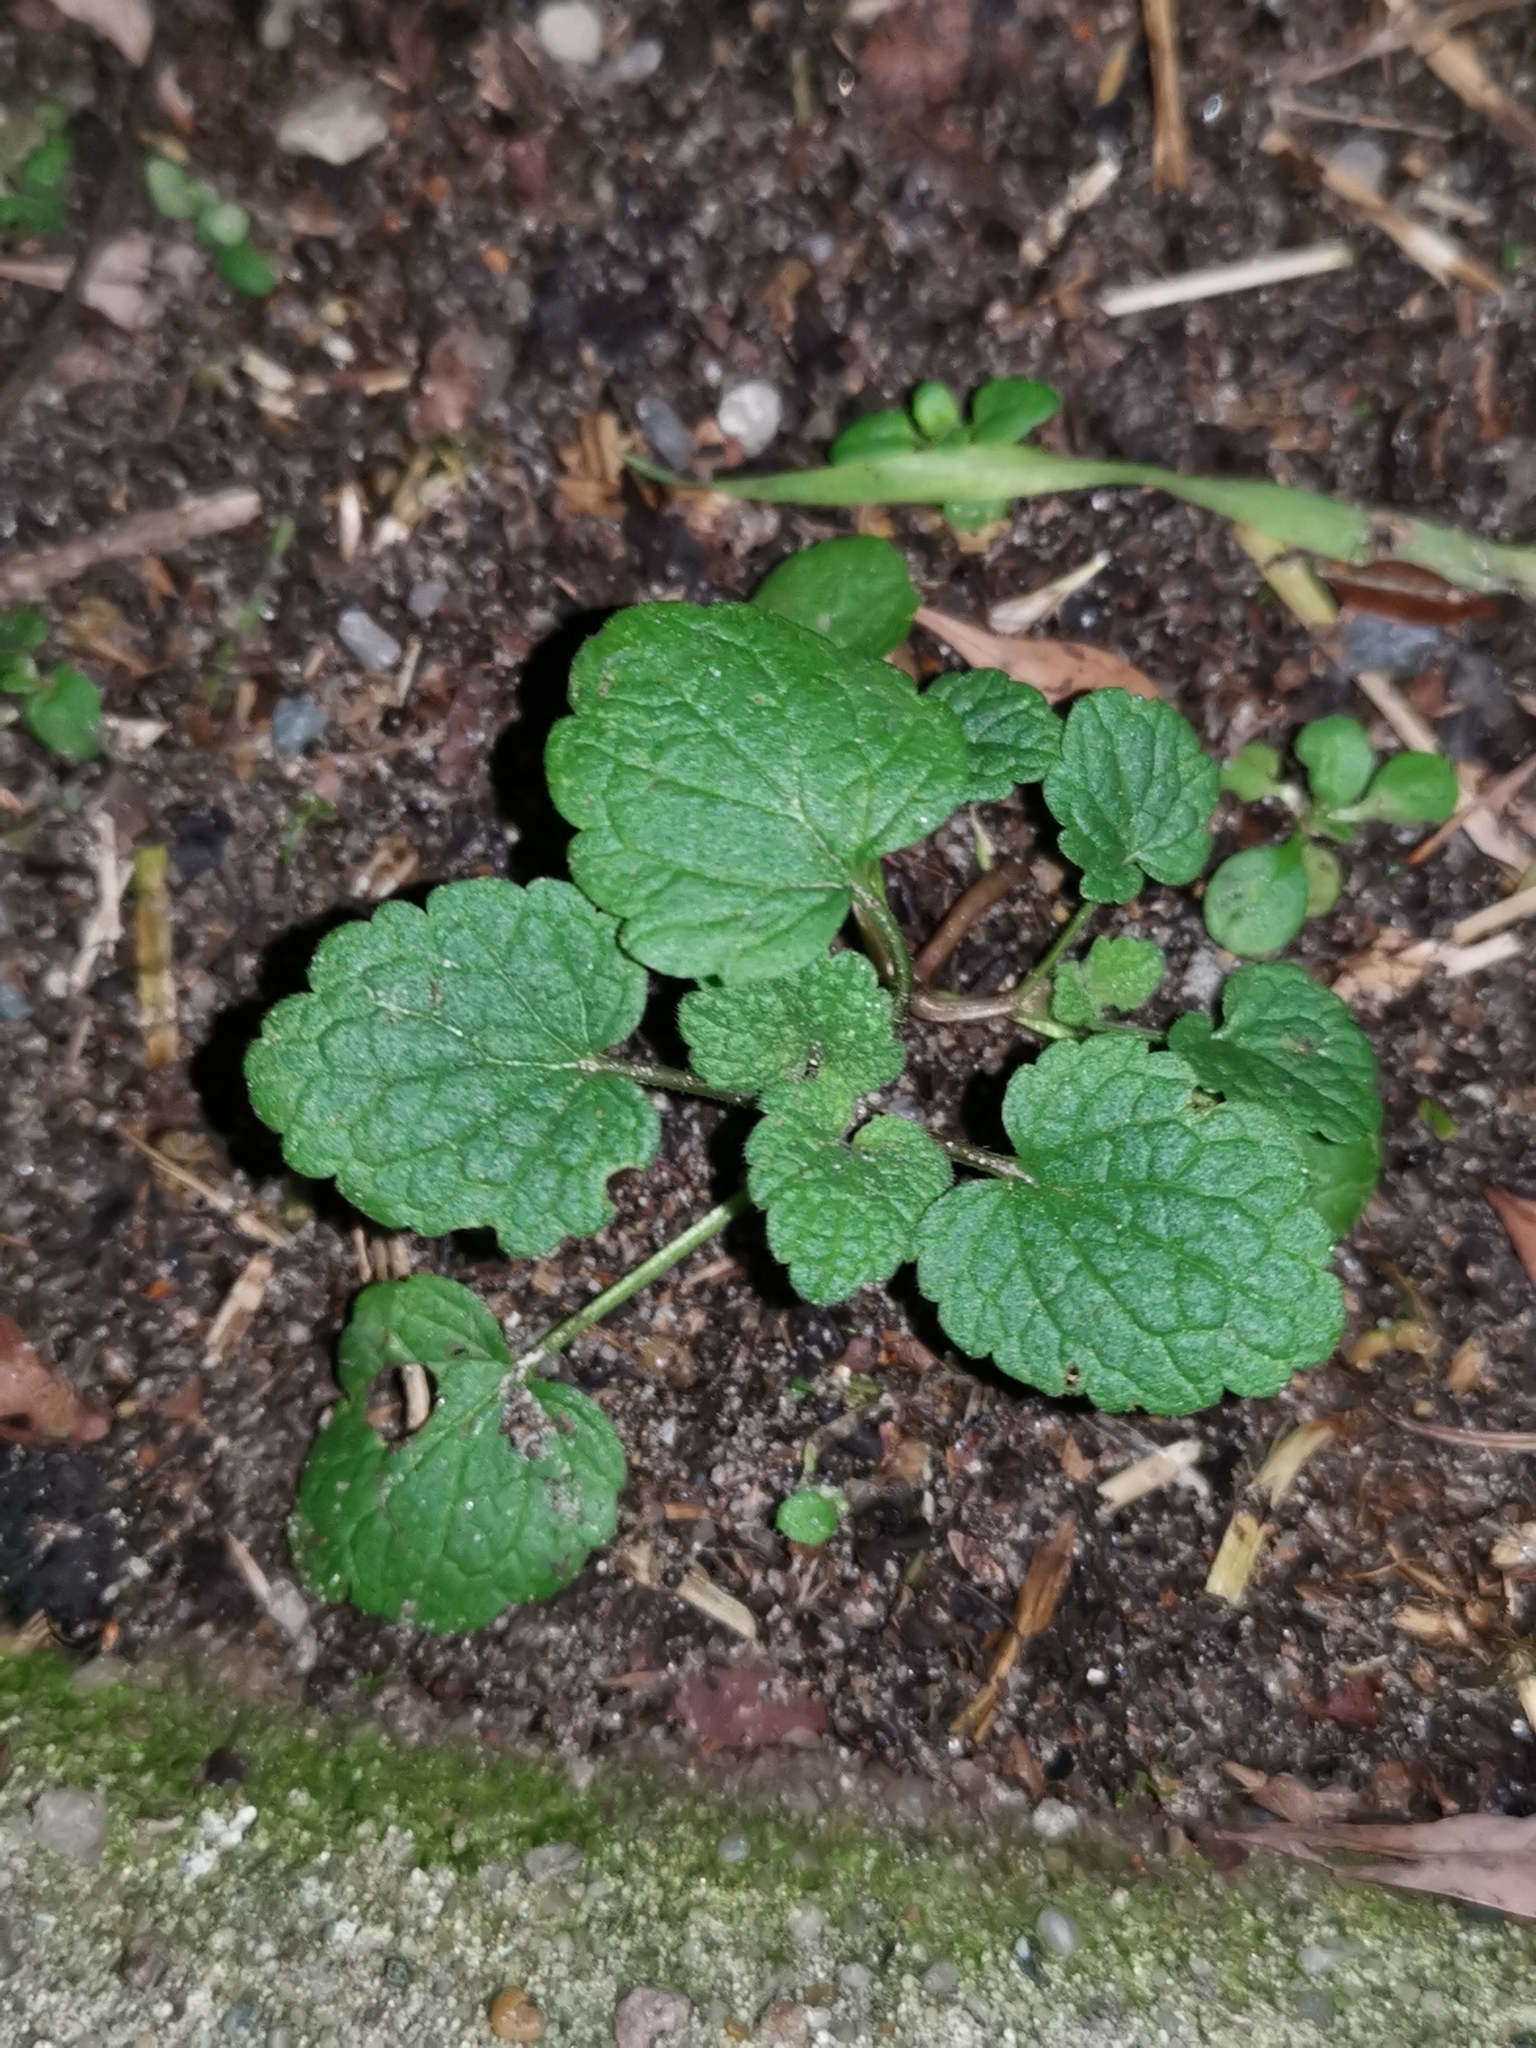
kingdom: Plantae
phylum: Tracheophyta
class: Magnoliopsida
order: Lamiales
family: Lamiaceae
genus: Lamium
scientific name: Lamium purpureum
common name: Red dead-nettle
